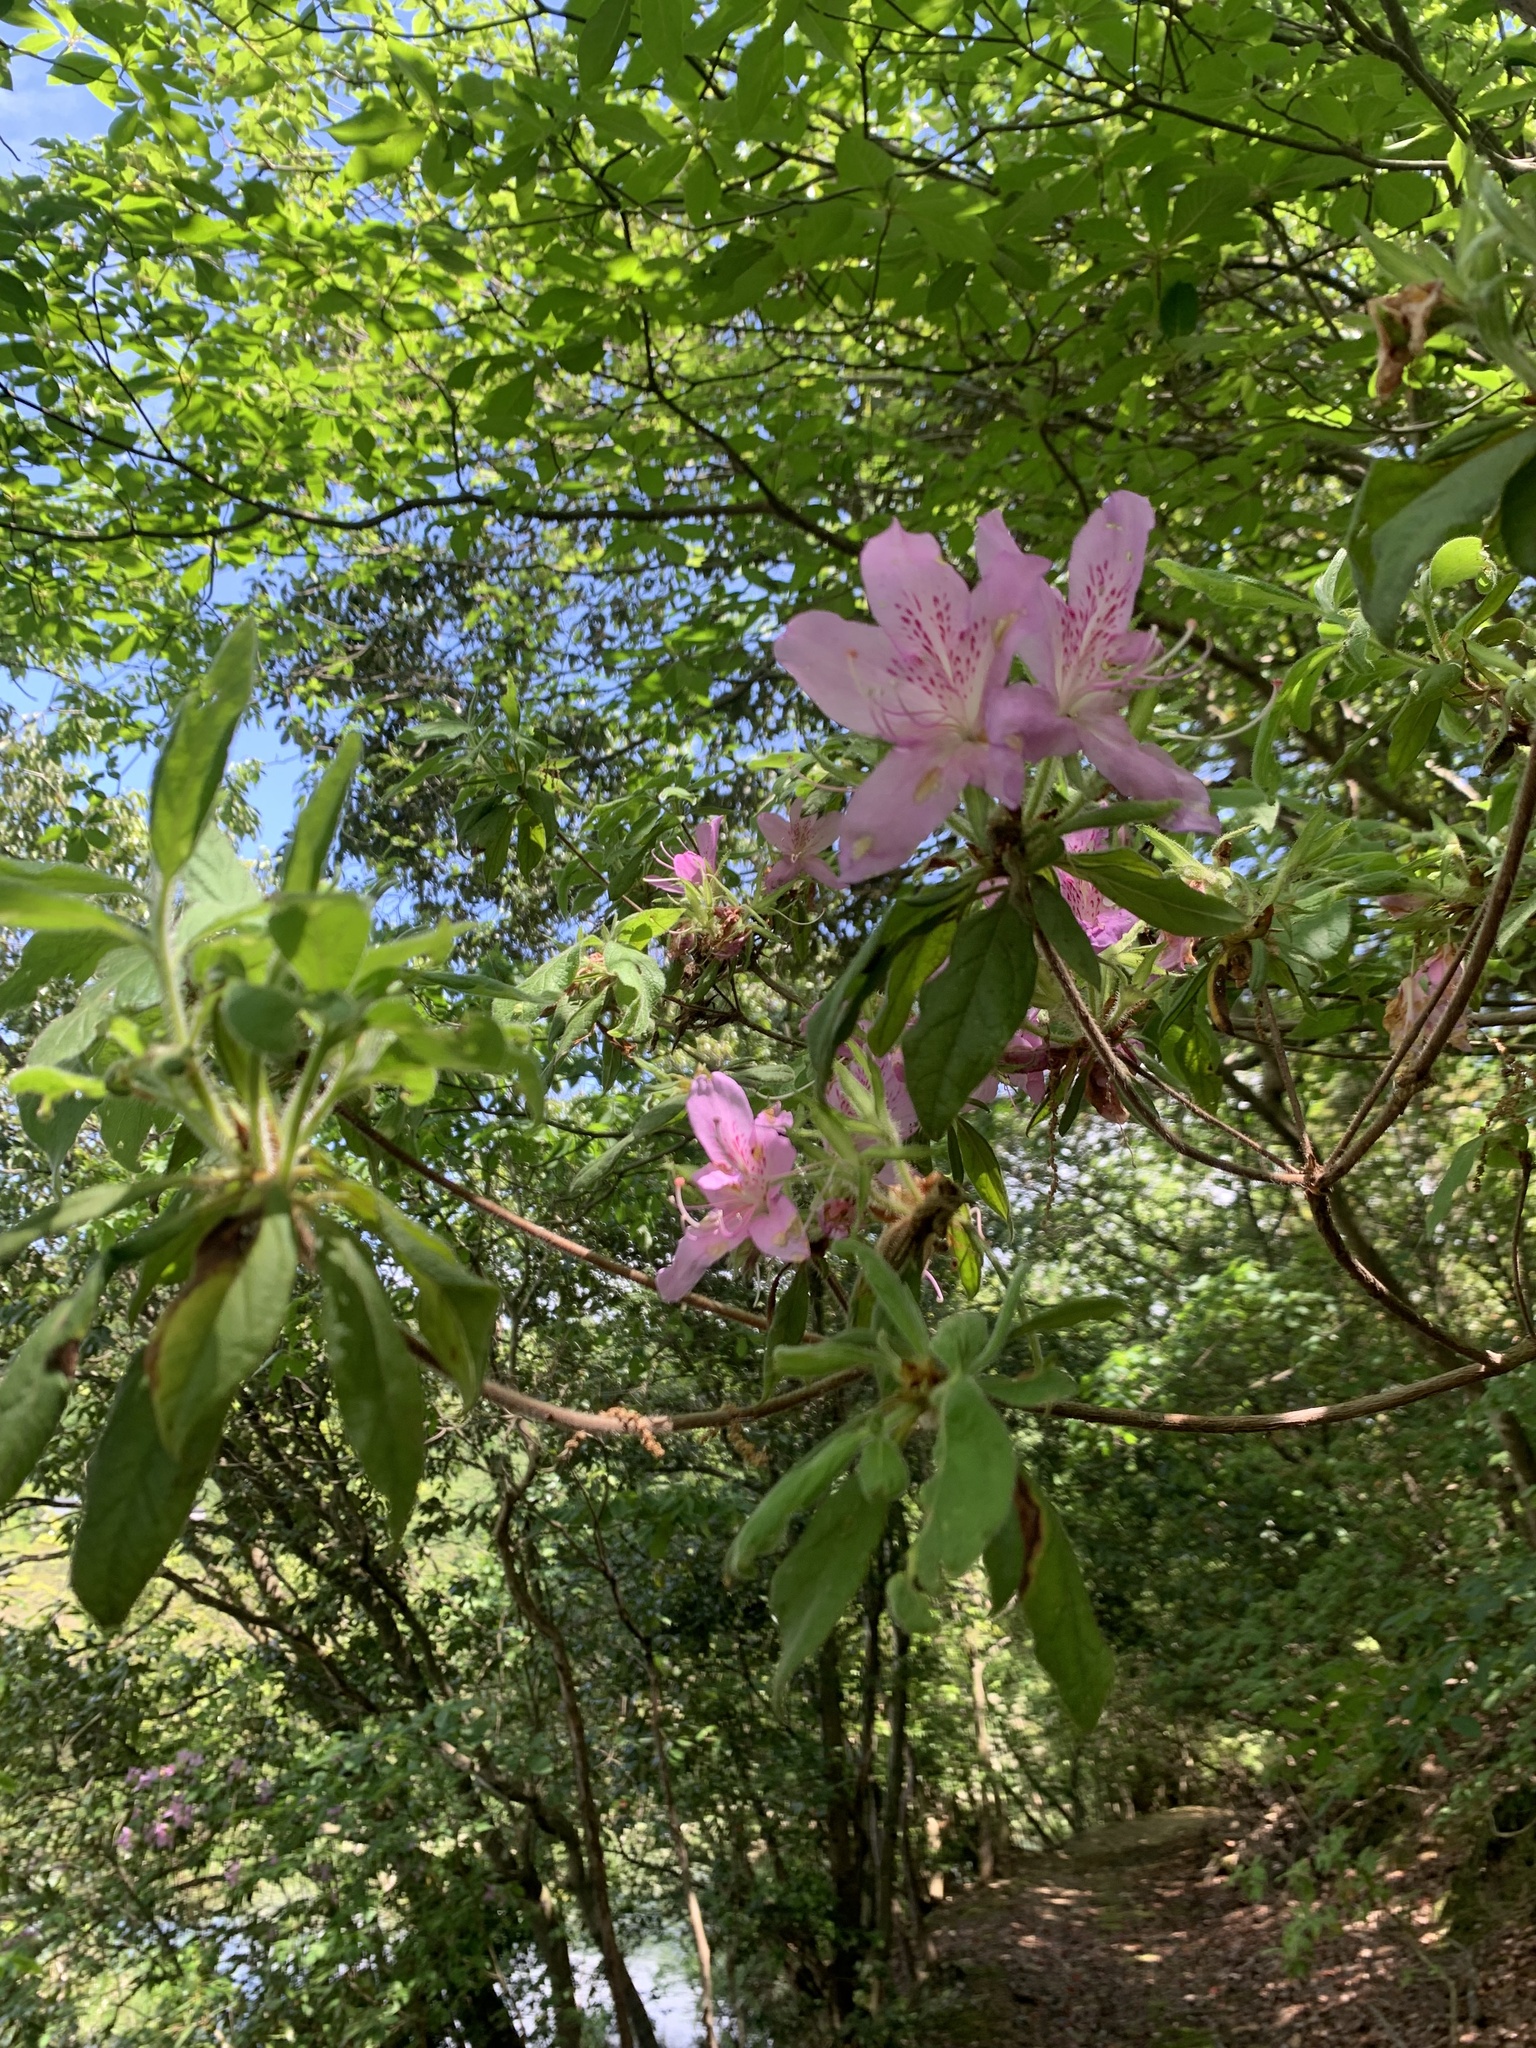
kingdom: Plantae
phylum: Tracheophyta
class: Magnoliopsida
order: Ericales
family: Ericaceae
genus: Rhododendron
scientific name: Rhododendron stenopetalum
